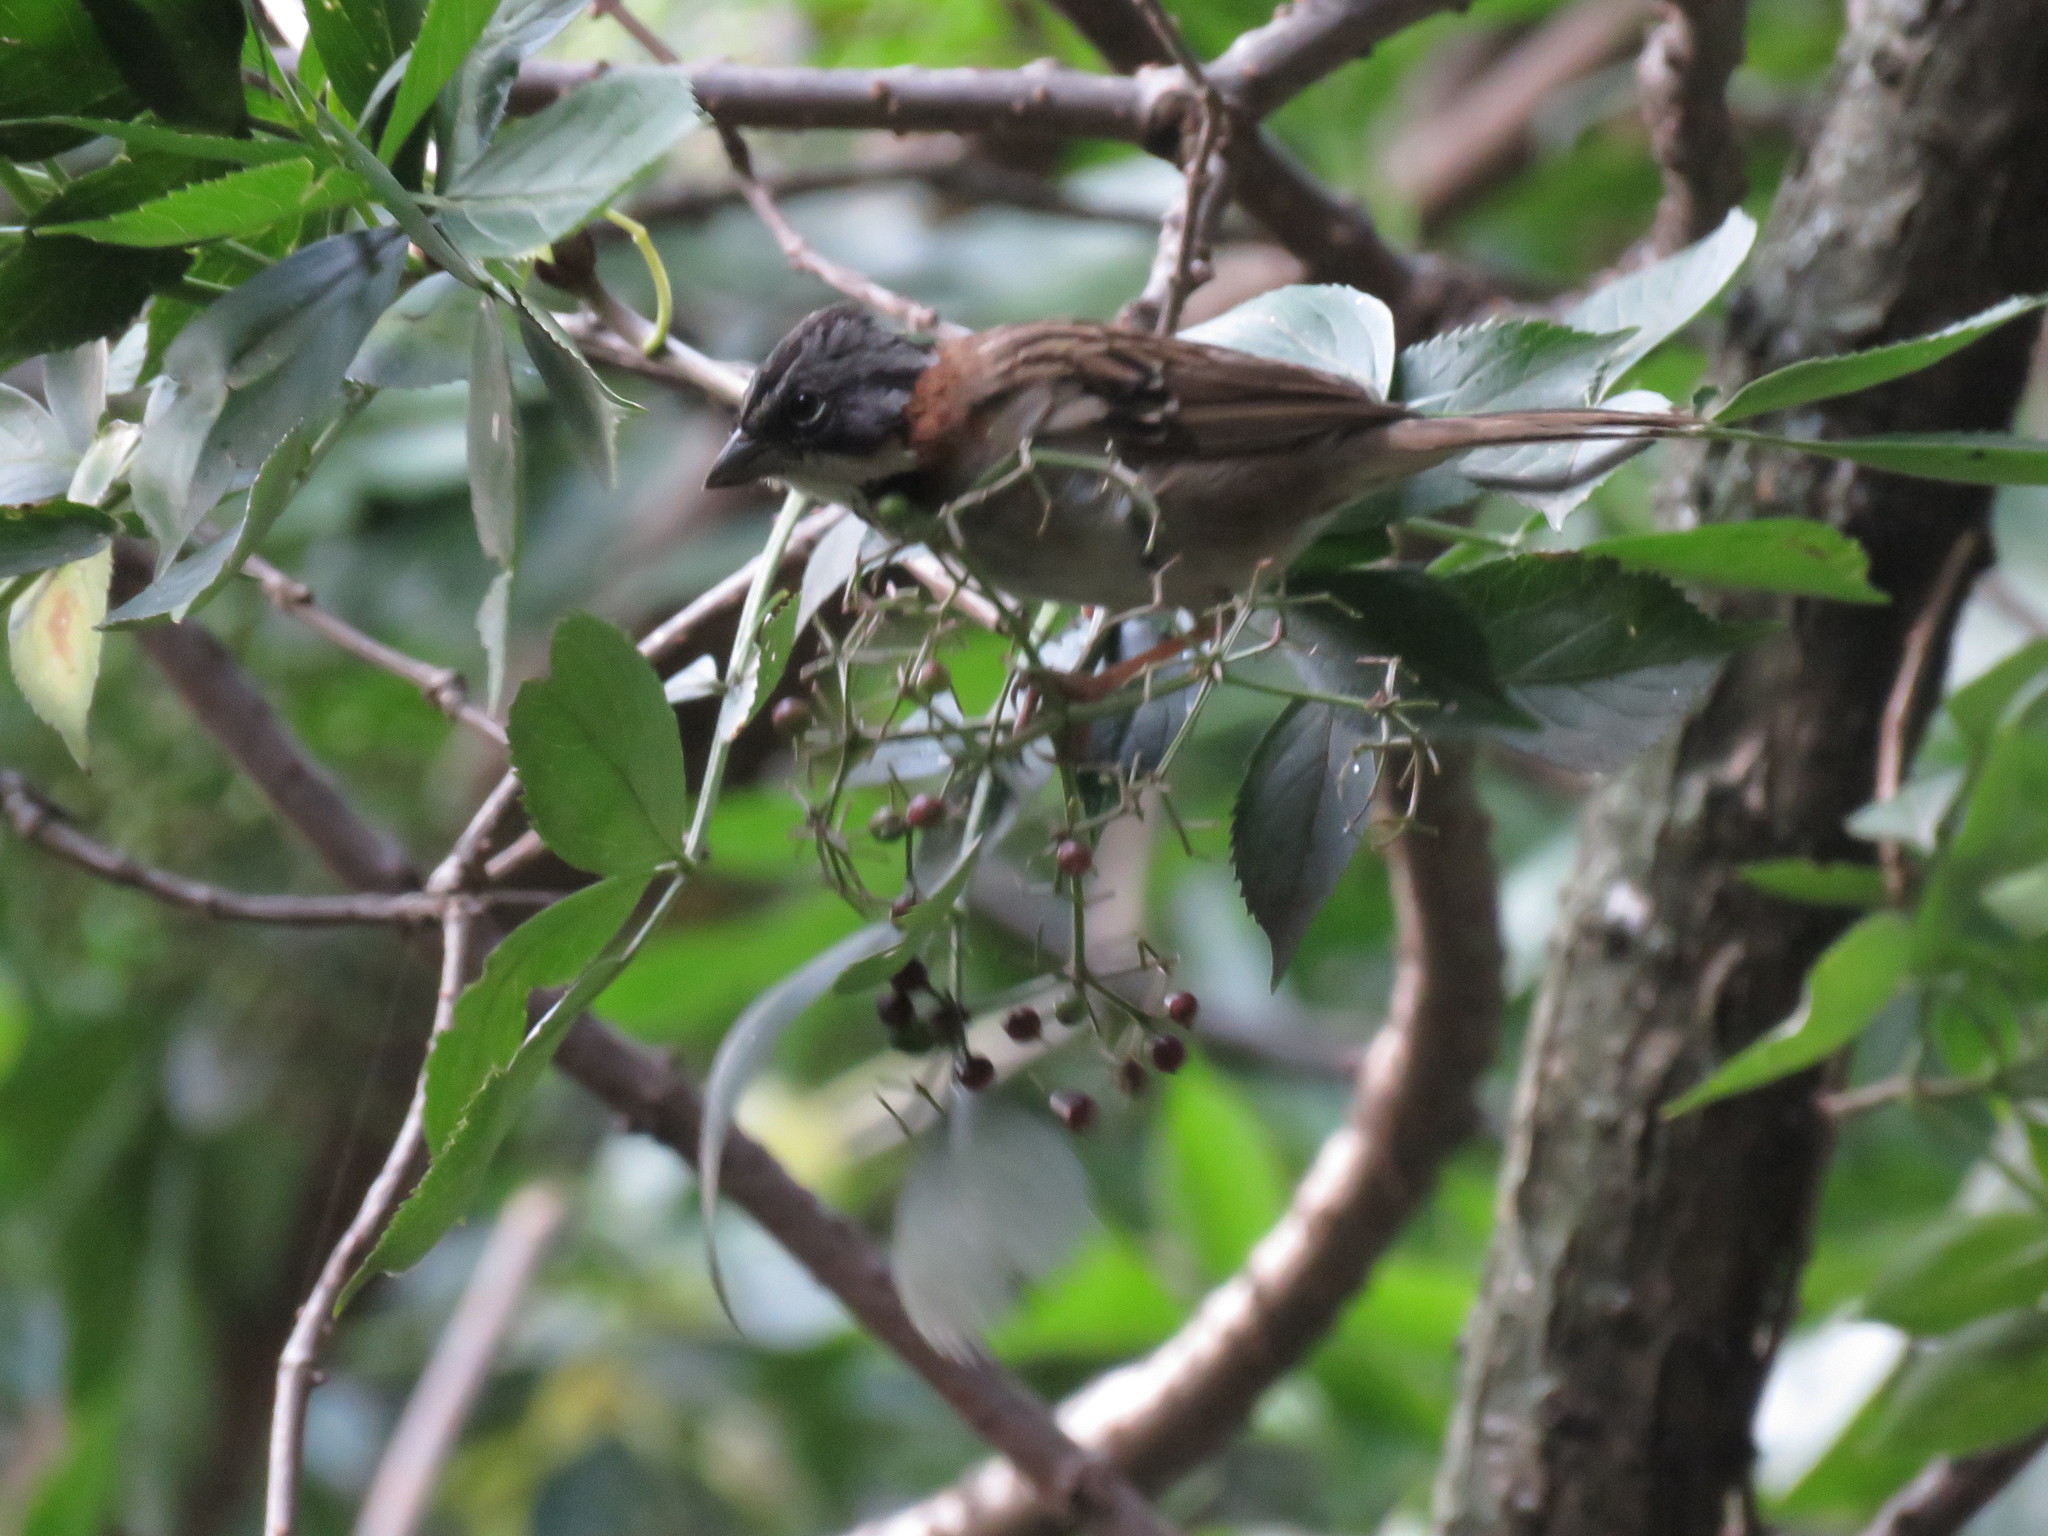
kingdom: Plantae
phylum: Tracheophyta
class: Magnoliopsida
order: Dipsacales
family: Viburnaceae
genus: Sambucus
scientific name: Sambucus nigra
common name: Elder
